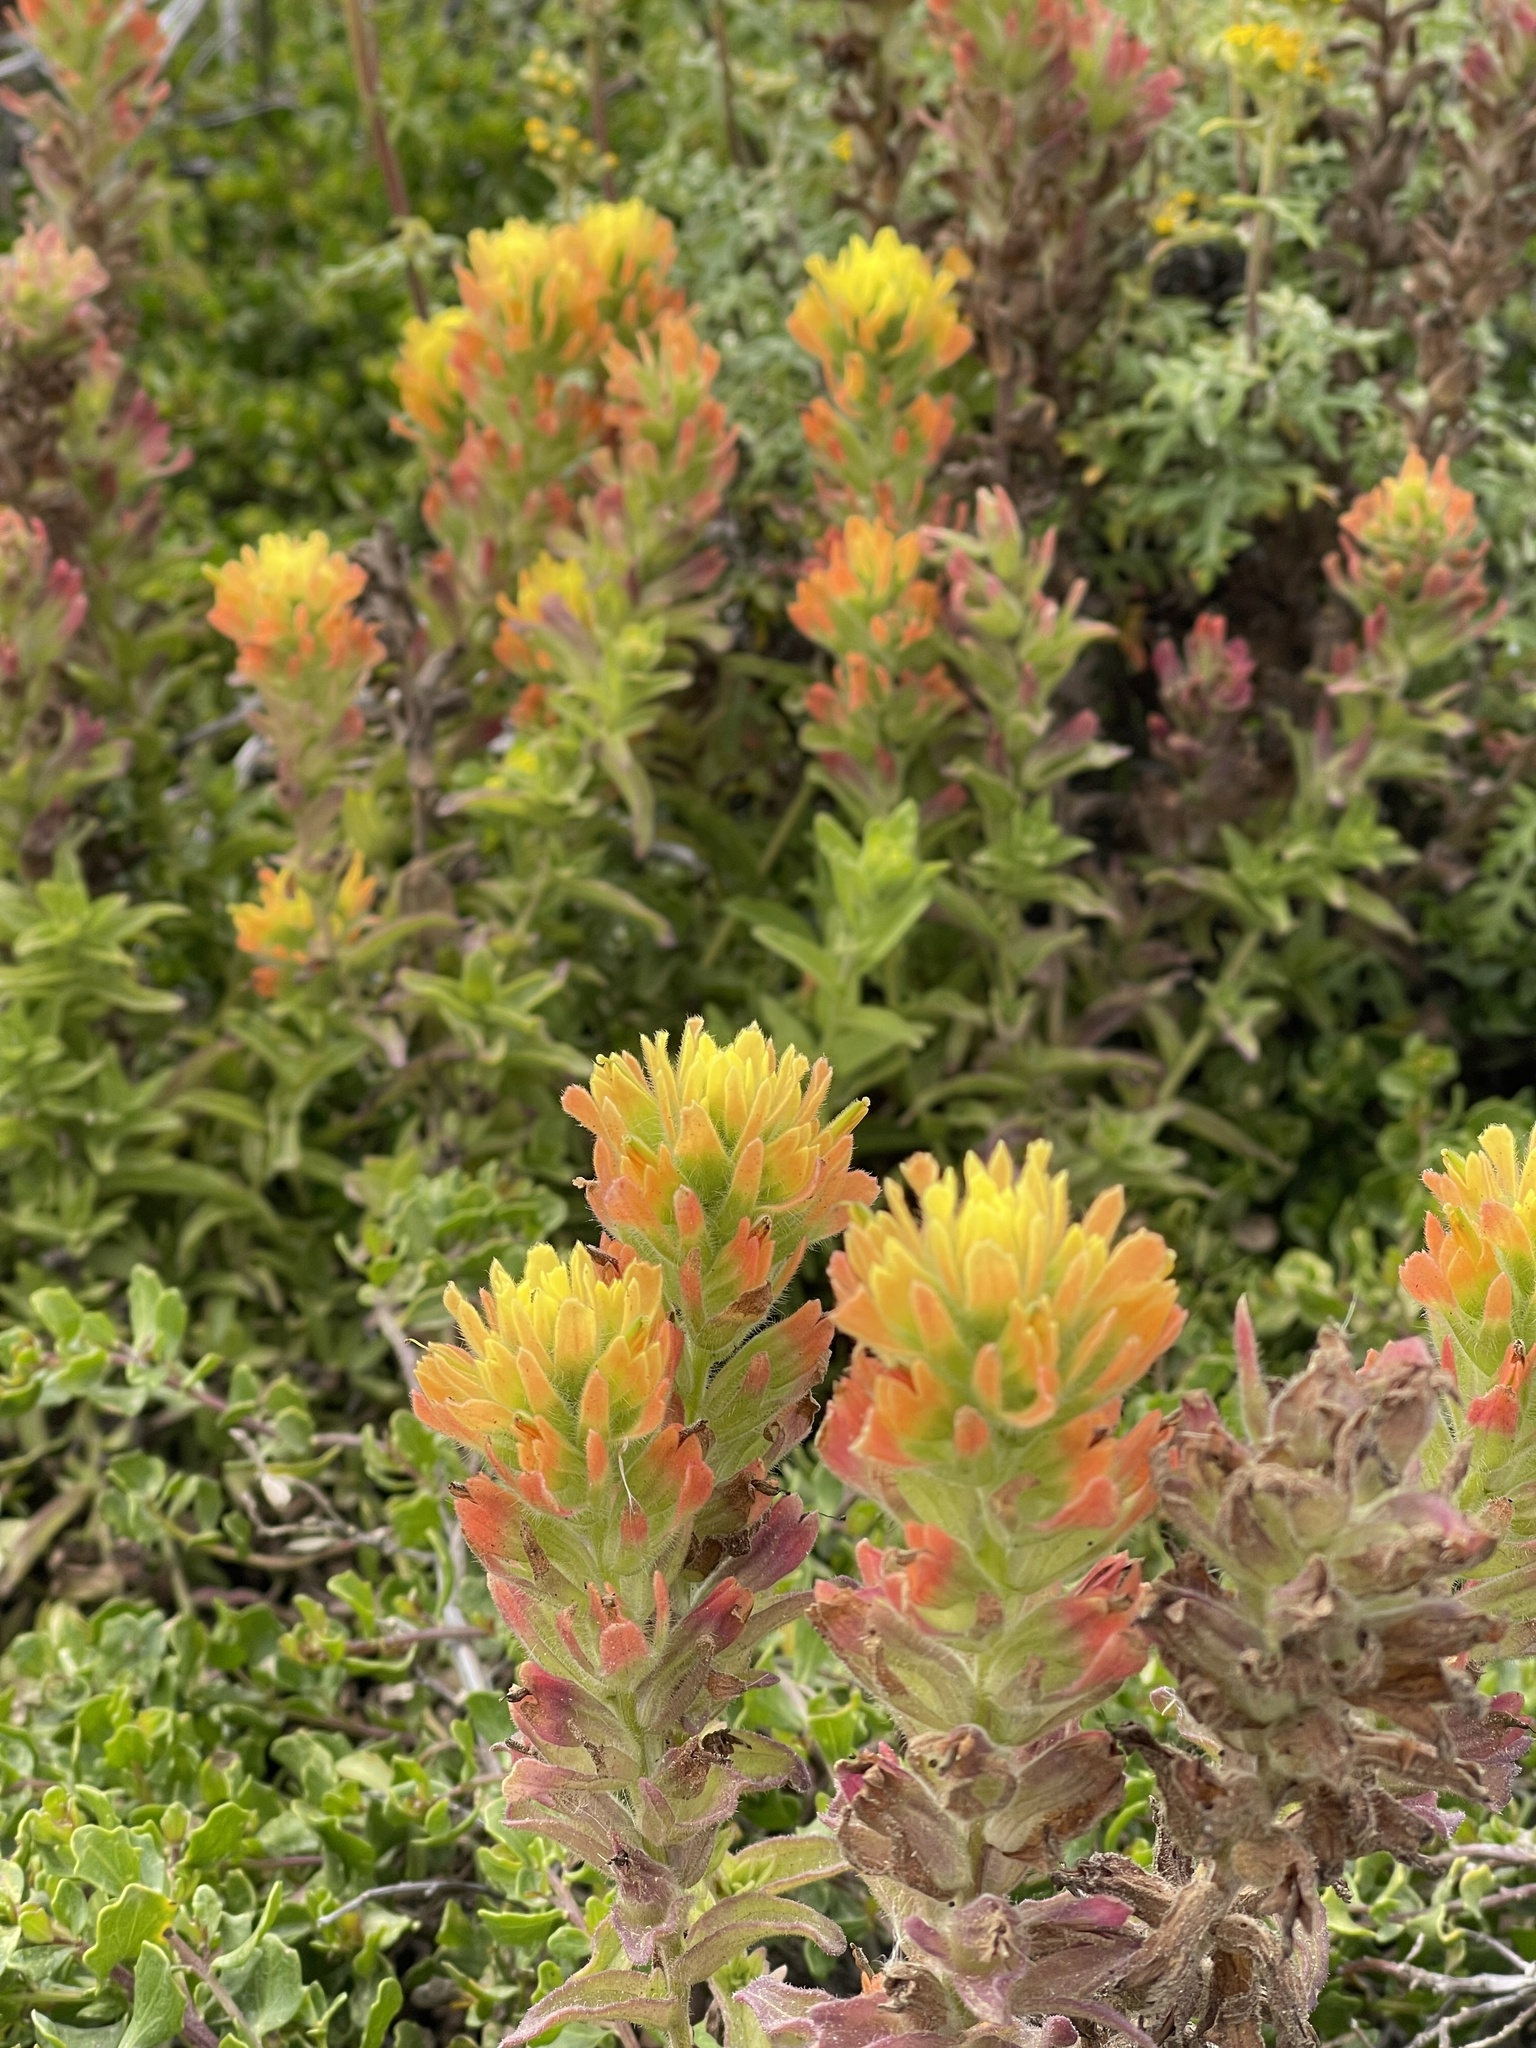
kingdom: Plantae
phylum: Tracheophyta
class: Magnoliopsida
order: Lamiales
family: Orobanchaceae
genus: Castilleja
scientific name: Castilleja wightii
